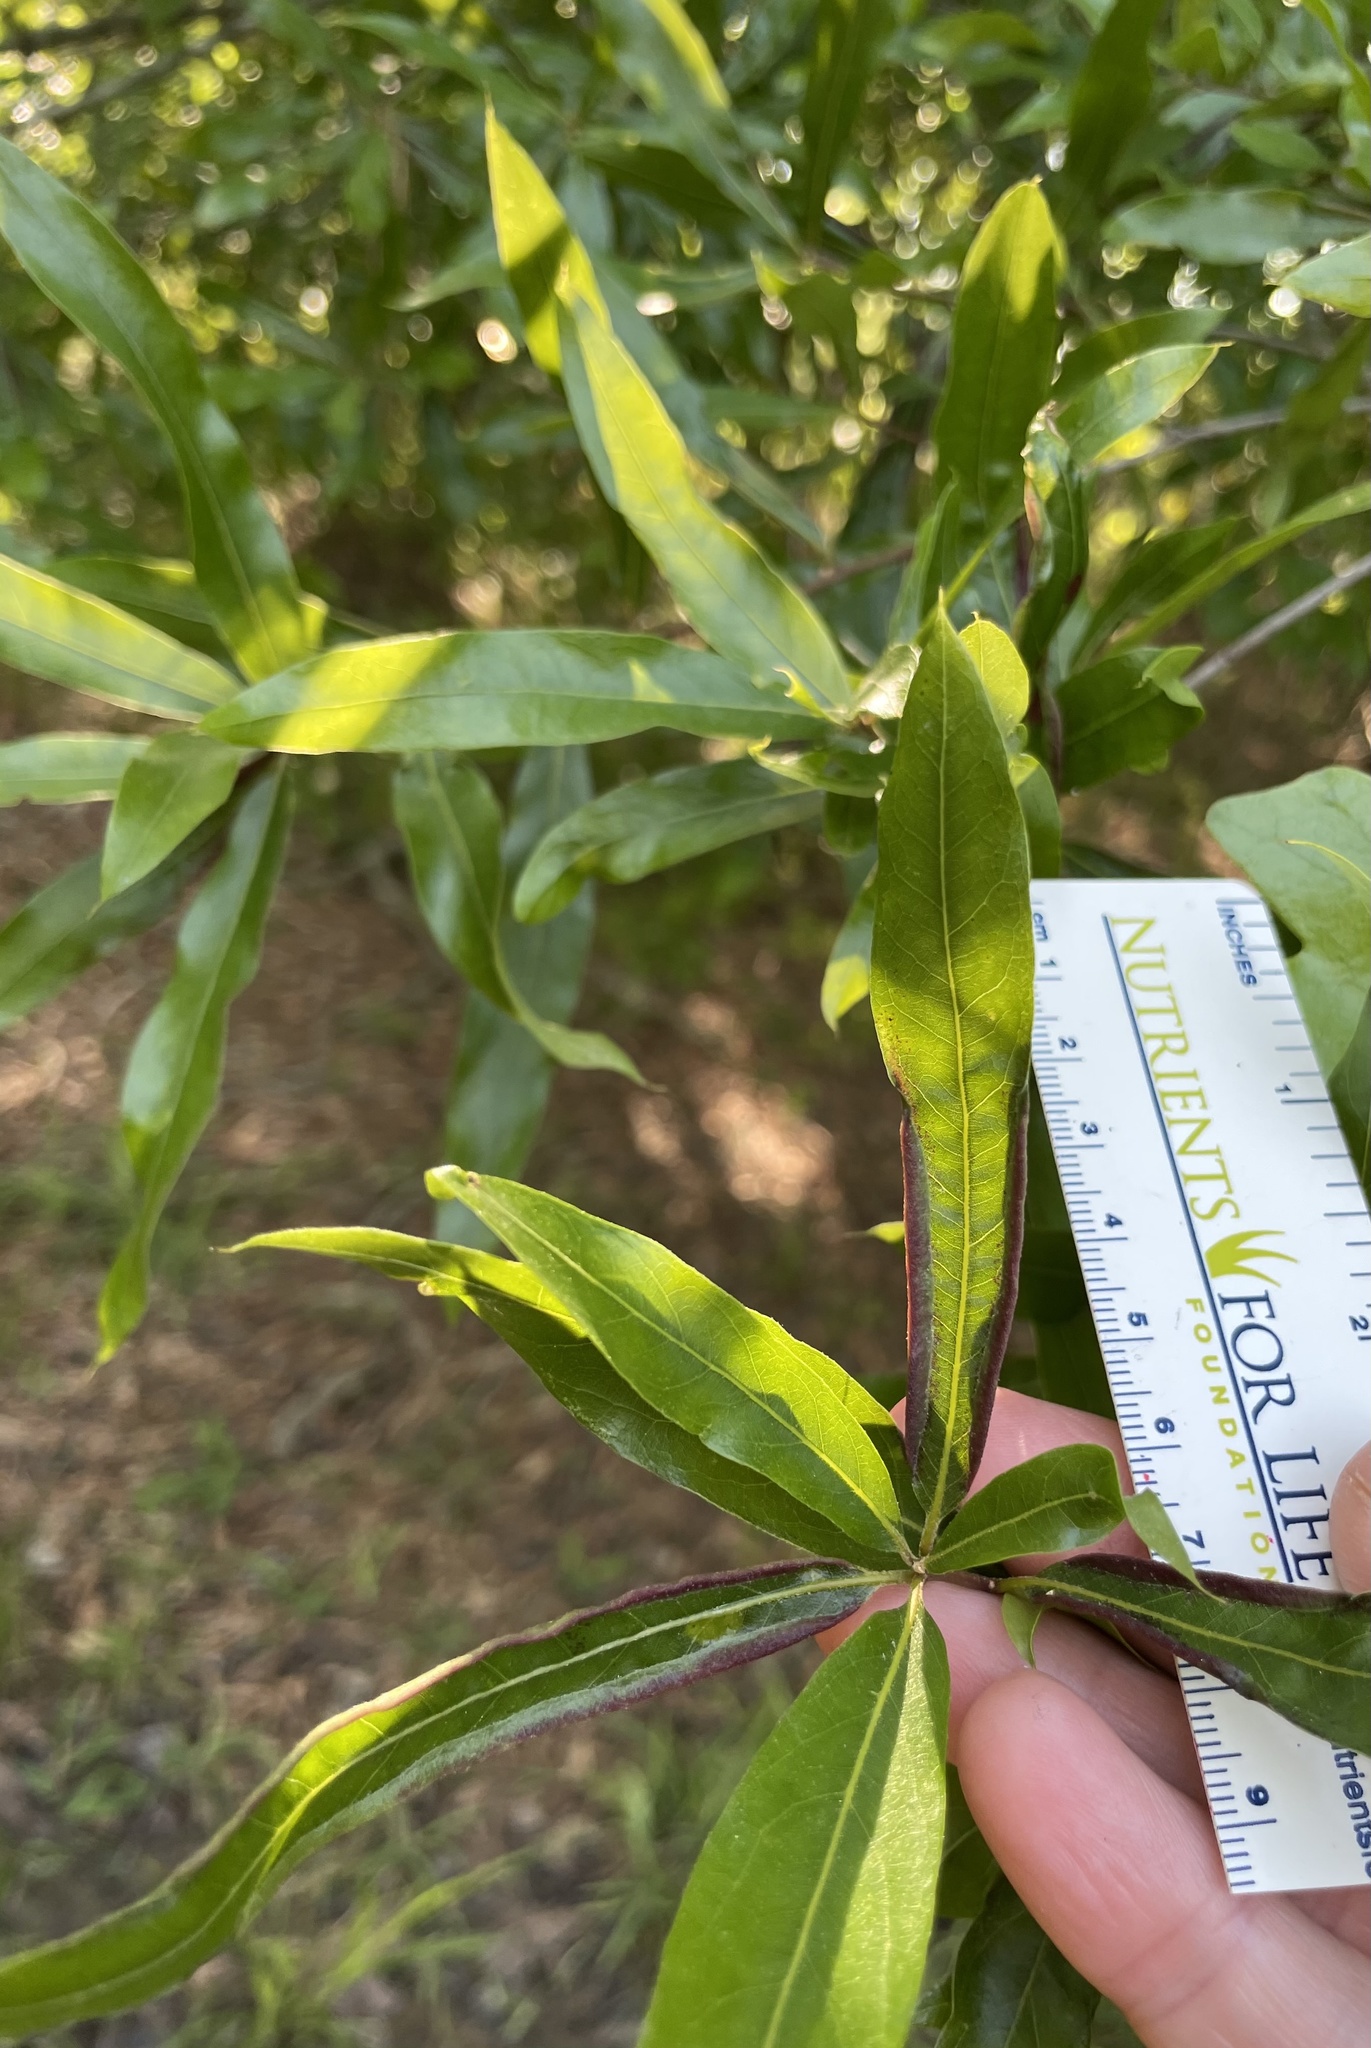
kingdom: Plantae
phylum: Tracheophyta
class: Magnoliopsida
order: Fagales
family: Fagaceae
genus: Quercus
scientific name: Quercus phellos
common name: Willow oak
